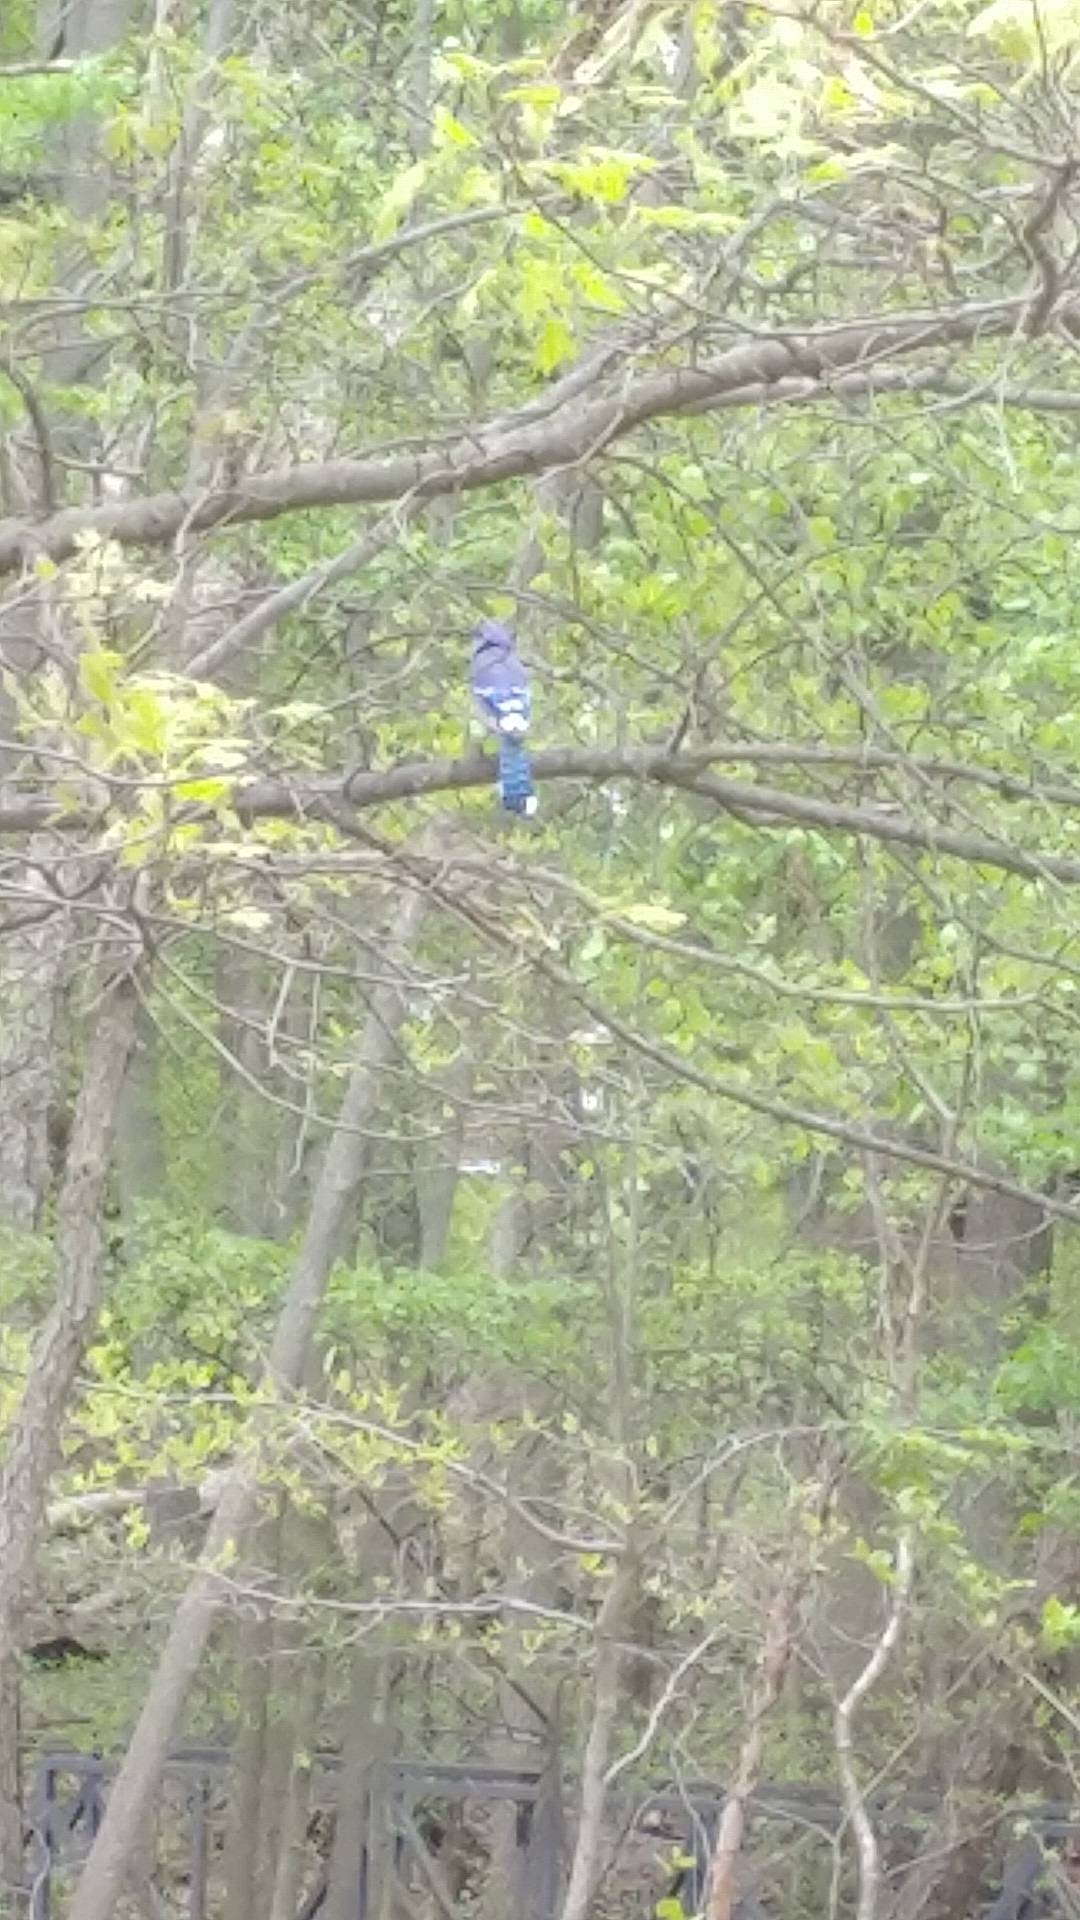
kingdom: Animalia
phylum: Chordata
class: Aves
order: Passeriformes
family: Corvidae
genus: Cyanocitta
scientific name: Cyanocitta cristata
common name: Blue jay
